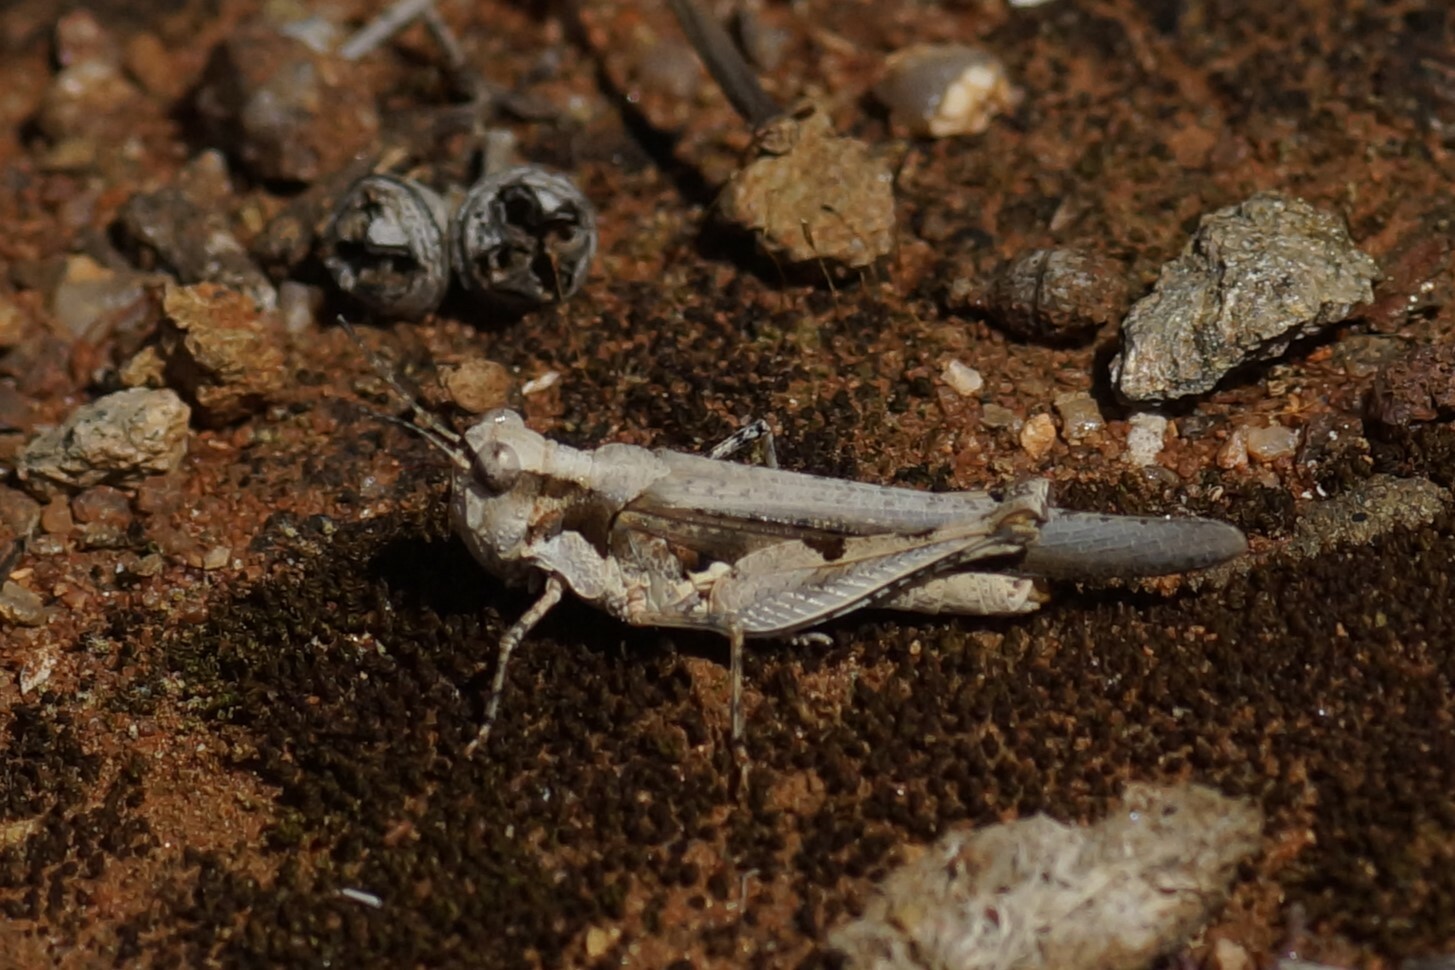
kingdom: Animalia
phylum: Arthropoda
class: Insecta
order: Orthoptera
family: Acrididae
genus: Pycnostictus
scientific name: Pycnostictus seriatus
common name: Common bandwing
